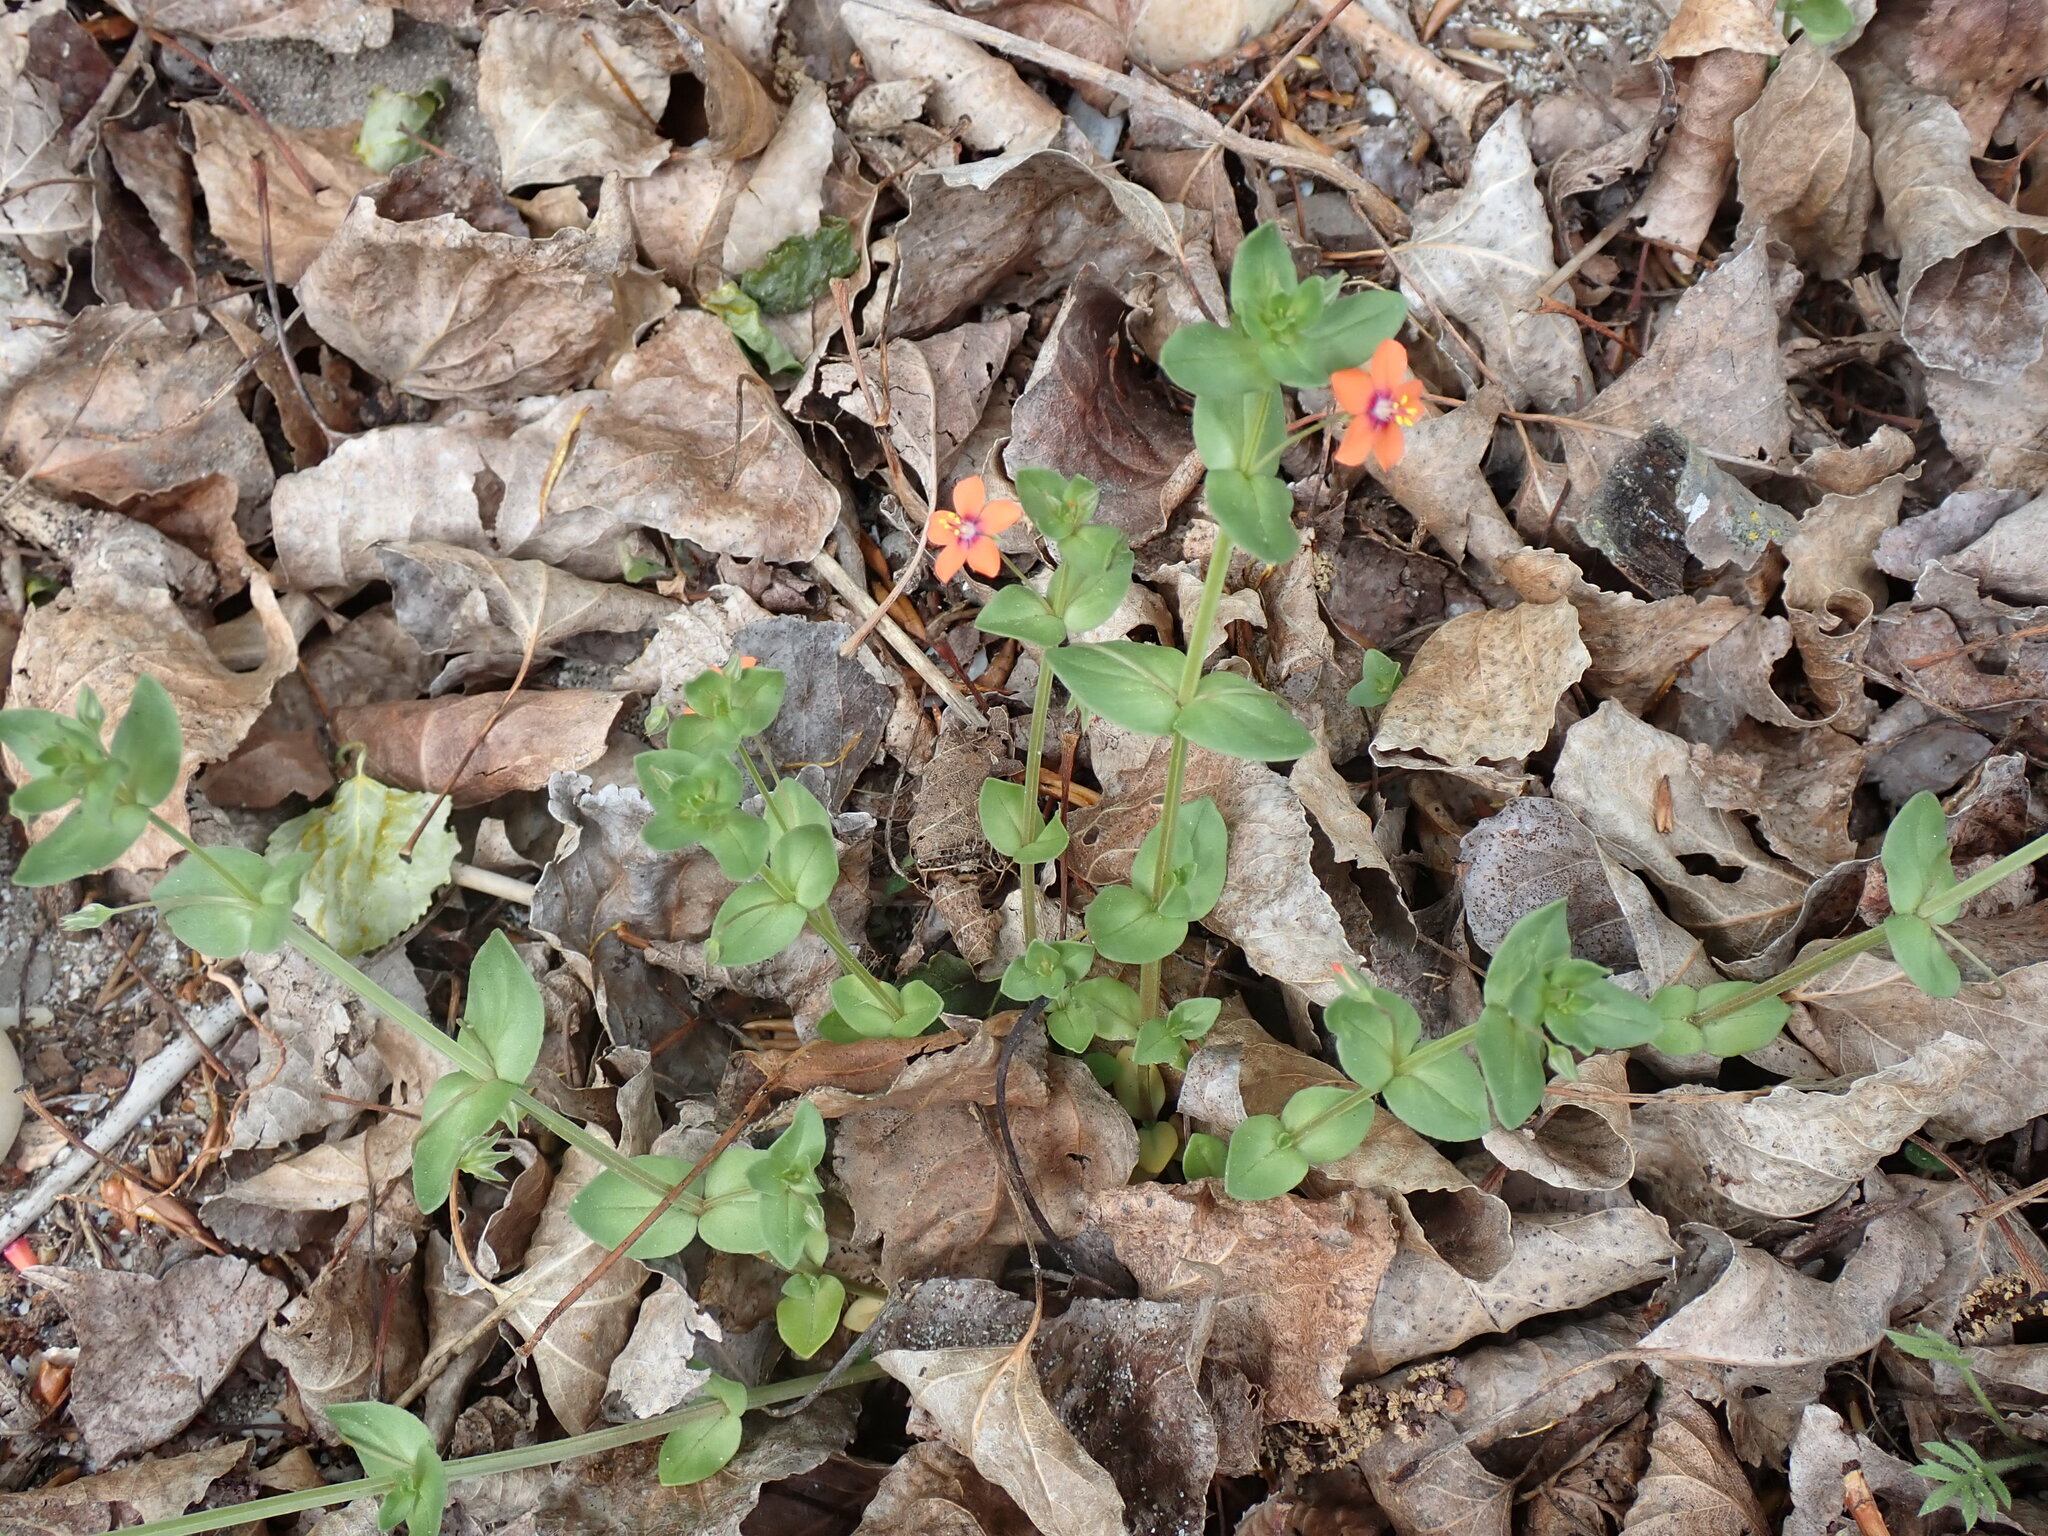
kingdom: Plantae
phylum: Tracheophyta
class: Magnoliopsida
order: Ericales
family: Primulaceae
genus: Lysimachia
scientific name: Lysimachia arvensis
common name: Scarlet pimpernel
